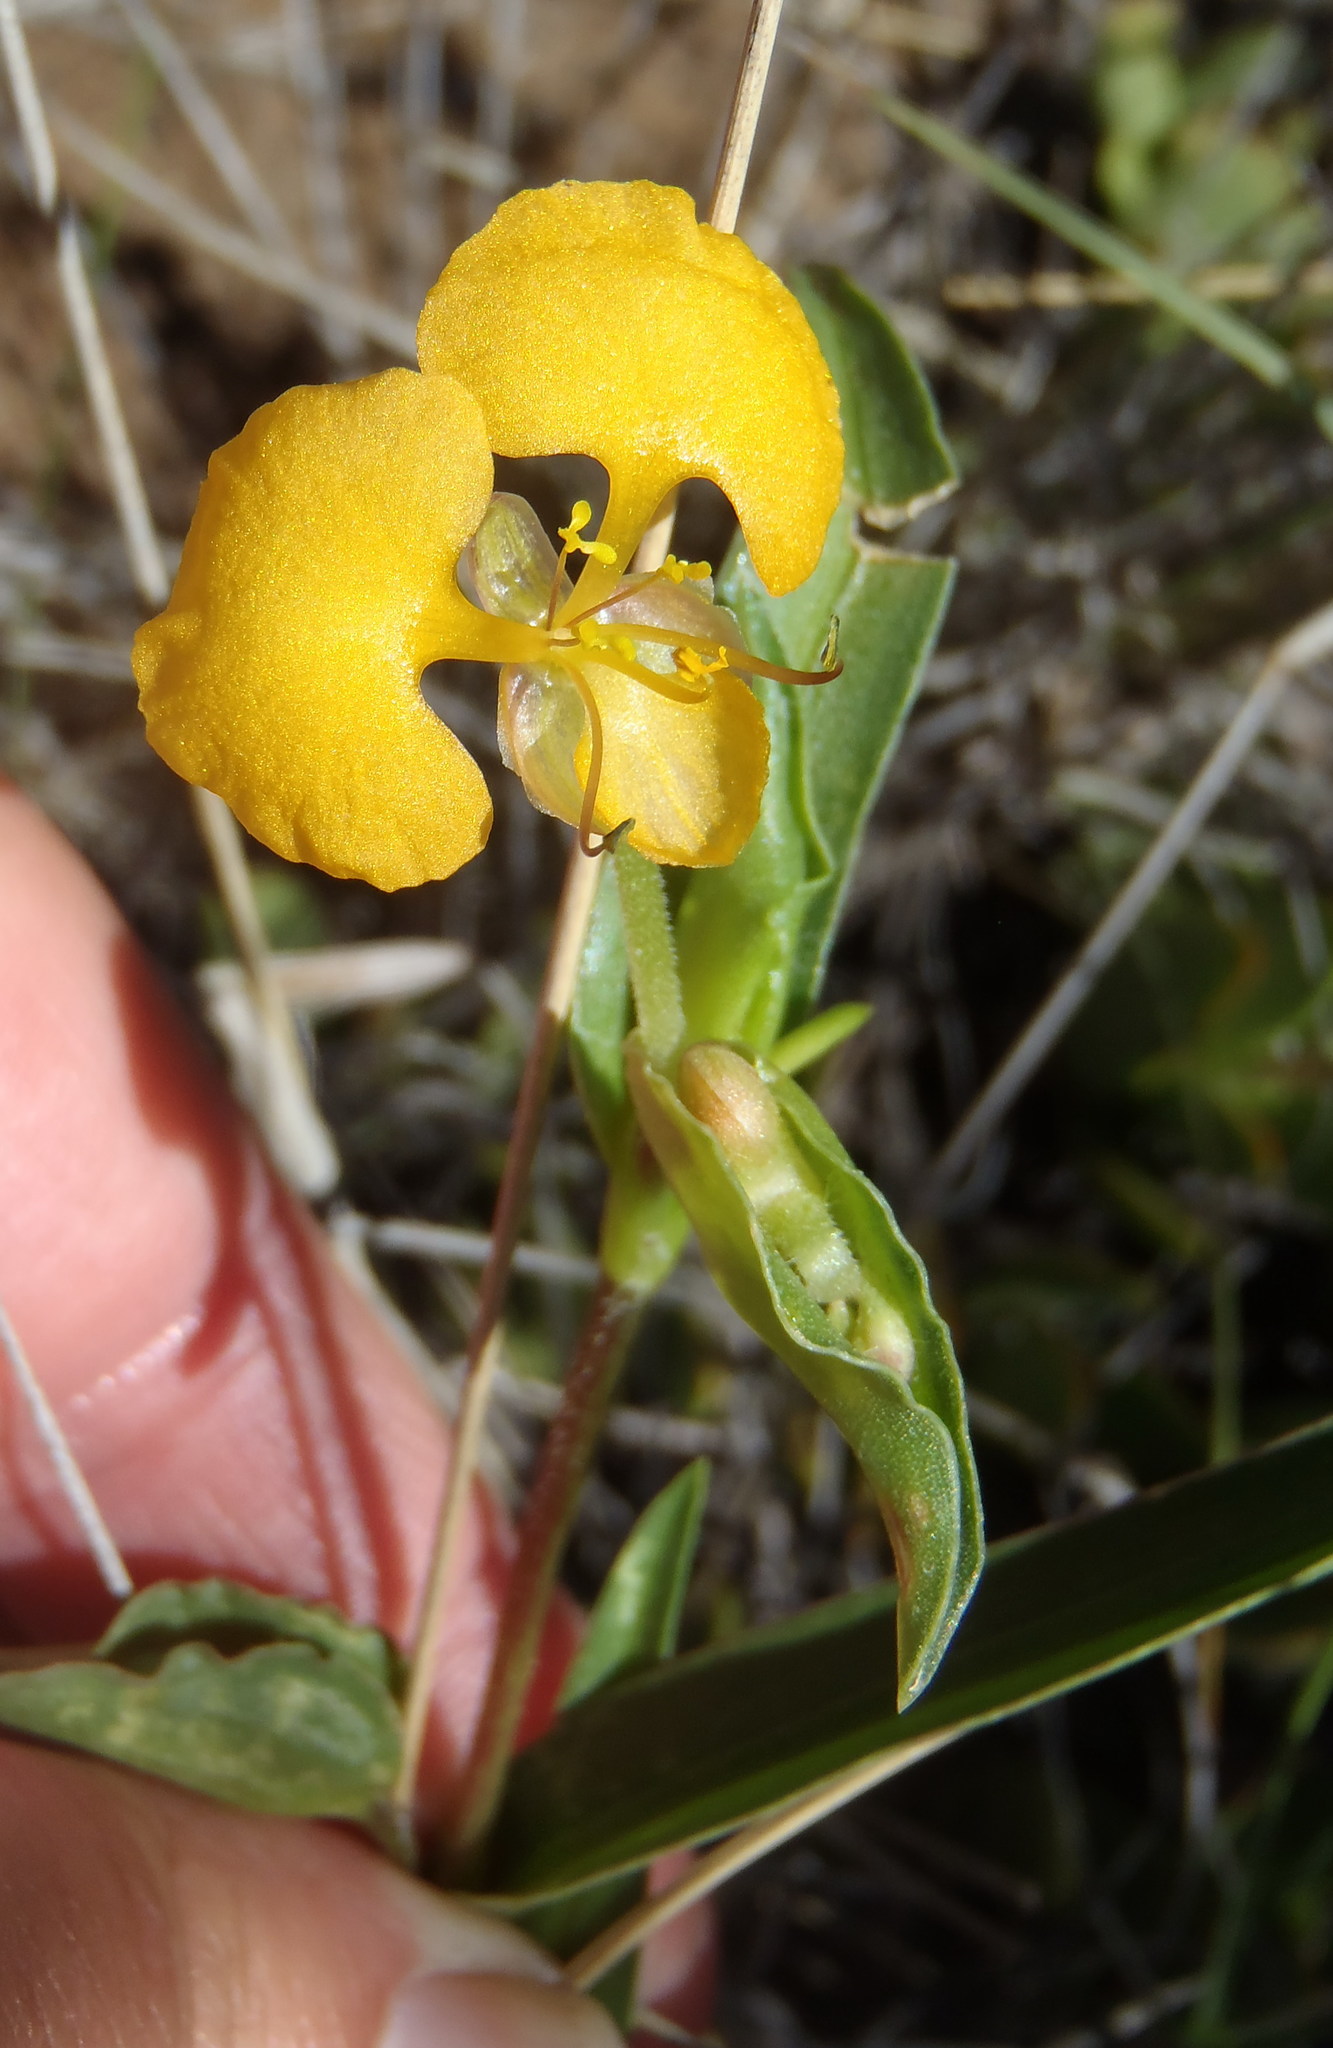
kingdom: Plantae
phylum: Tracheophyta
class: Liliopsida
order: Commelinales
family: Commelinaceae
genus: Commelina
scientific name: Commelina africana
